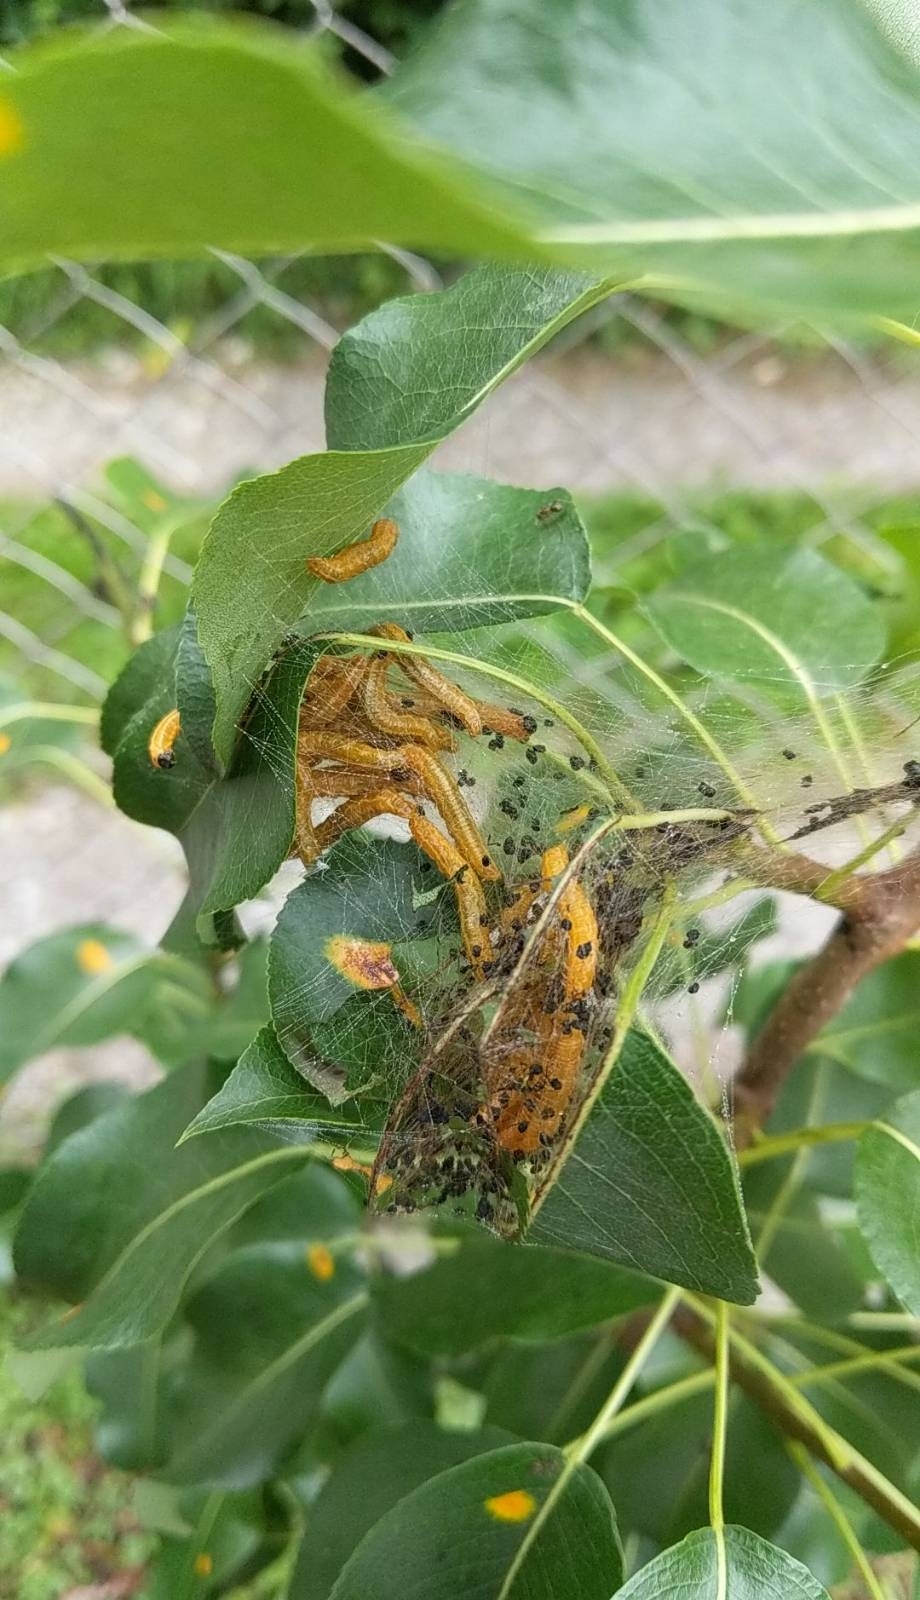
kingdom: Animalia
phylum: Arthropoda
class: Insecta
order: Hymenoptera
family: Pamphiliidae
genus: Neurotoma
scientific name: Neurotoma saltuum
